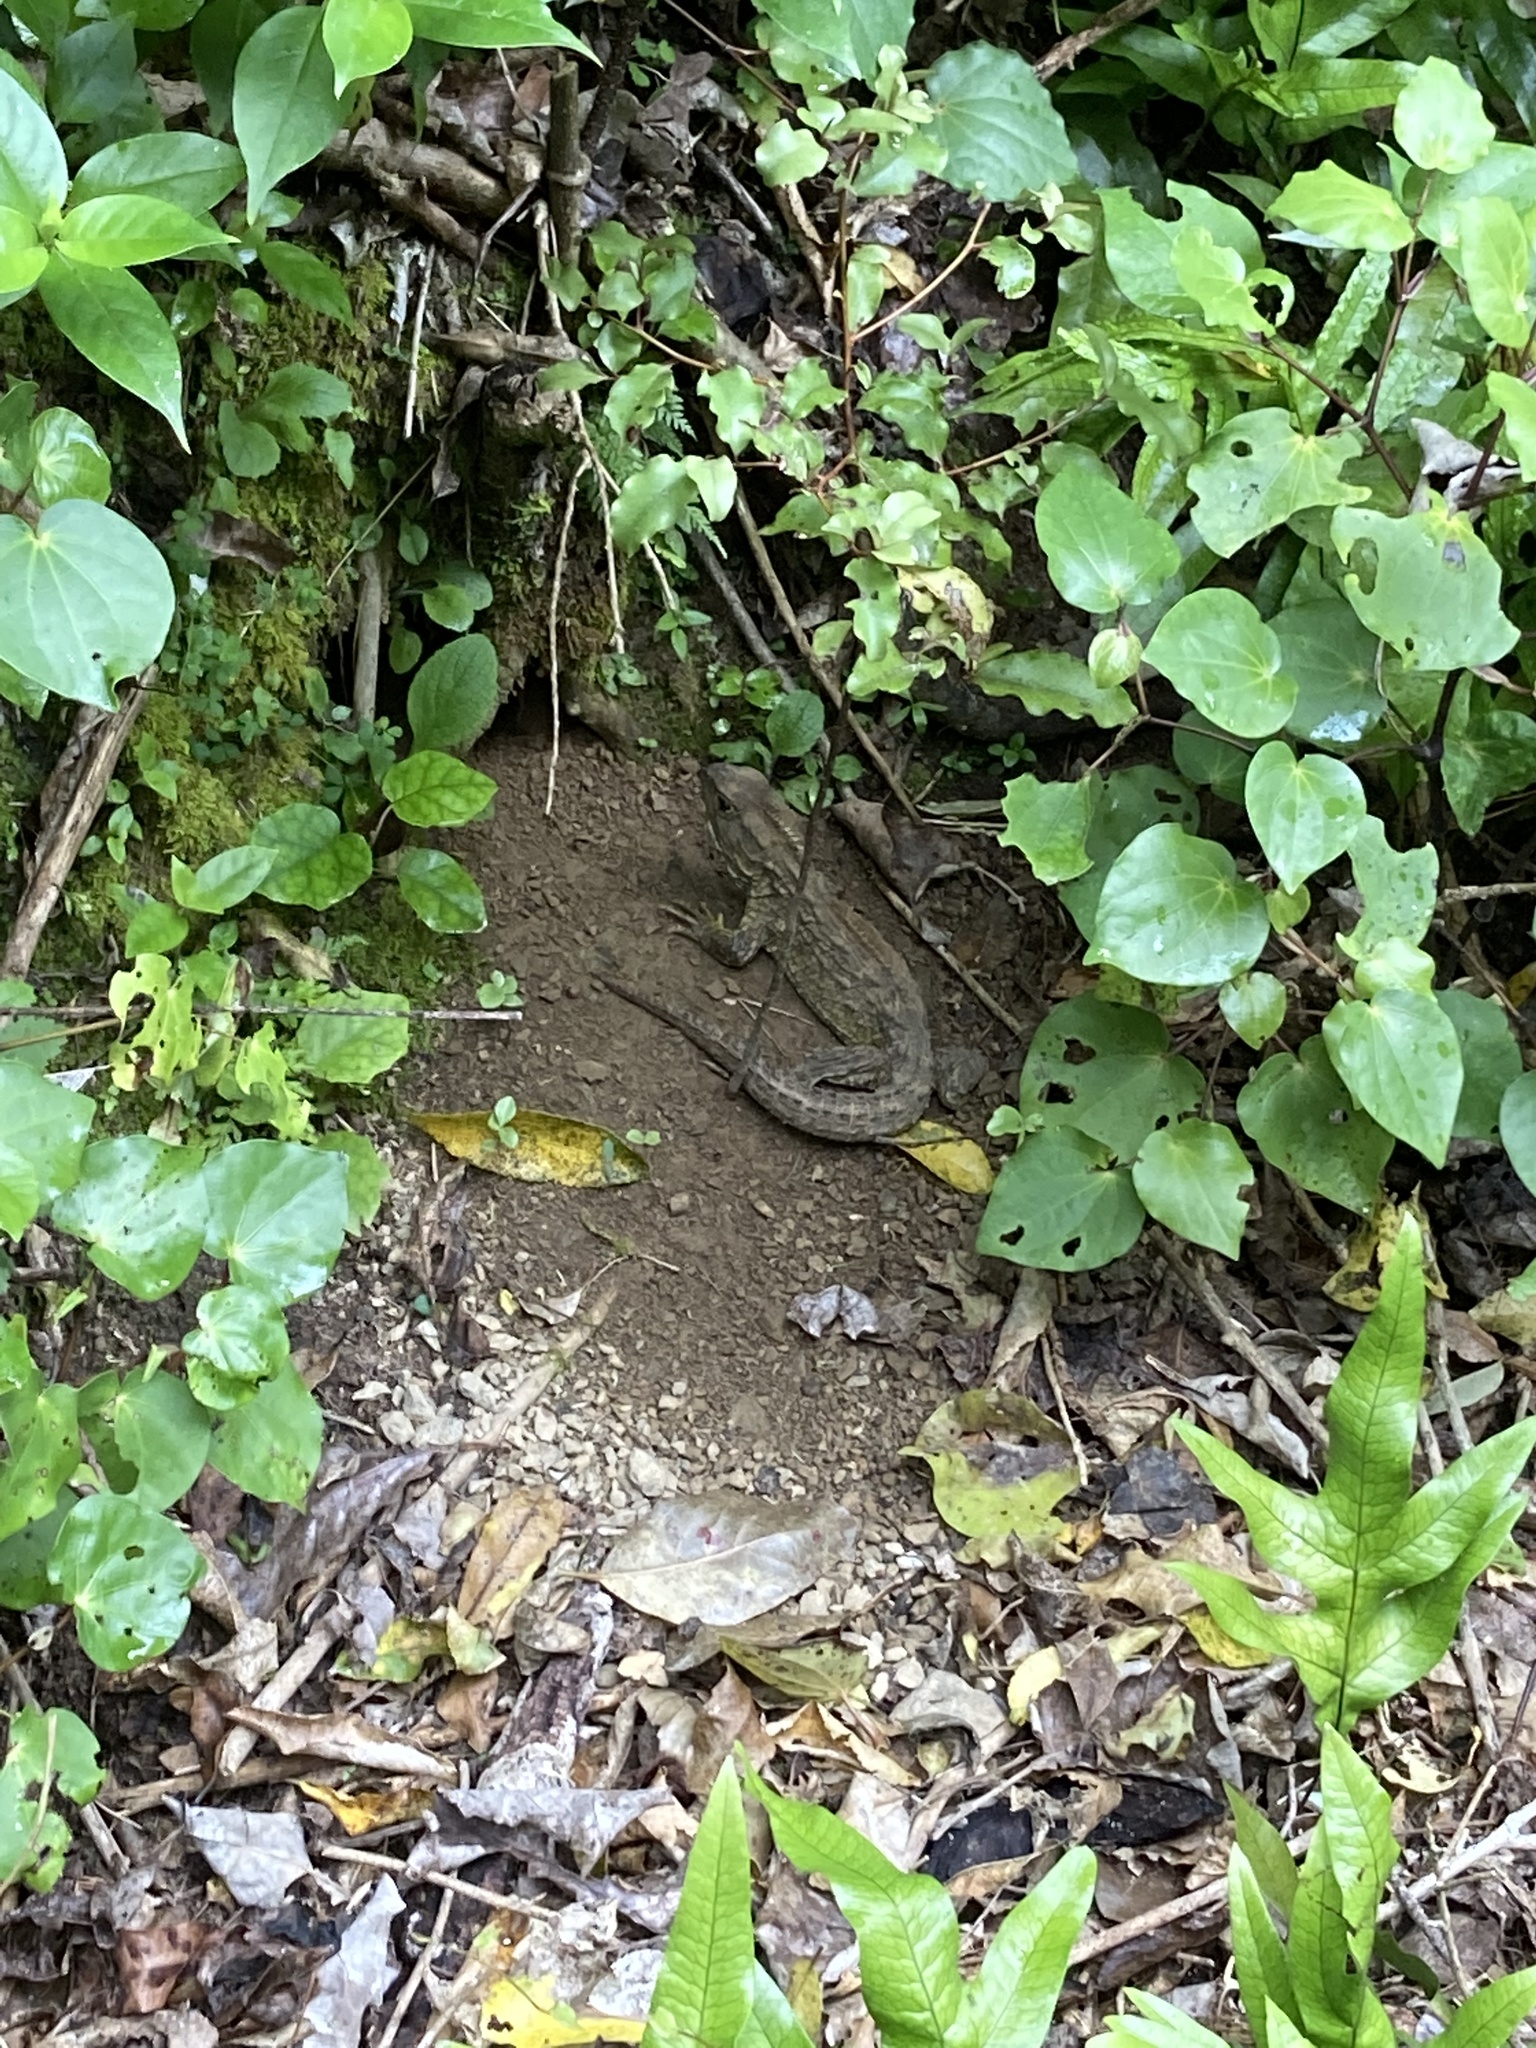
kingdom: Animalia
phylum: Chordata
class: Sphenodontia
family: Sphenodontidae
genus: Sphenodon
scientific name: Sphenodon punctatus
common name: Tuatara
